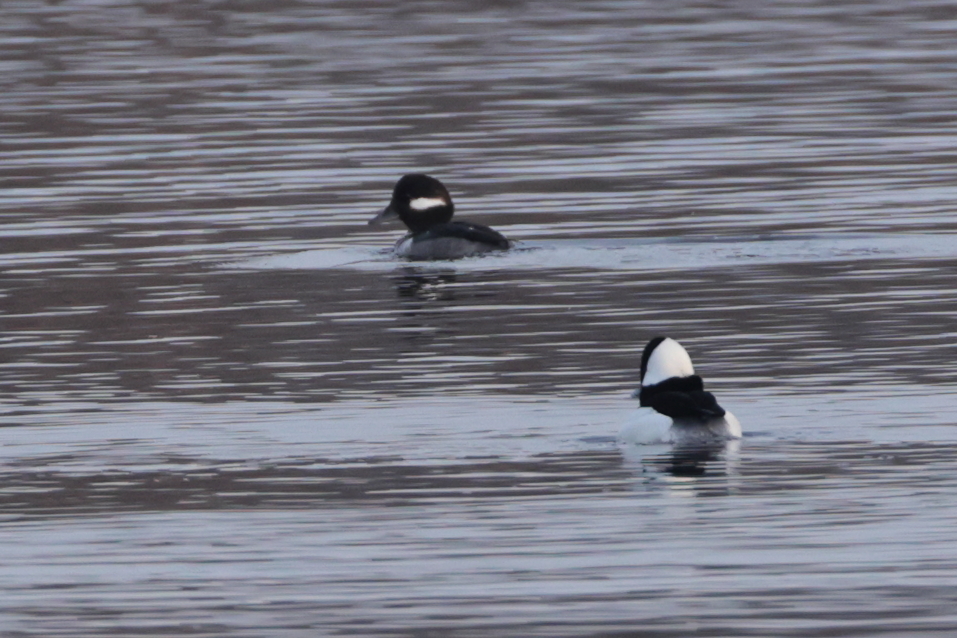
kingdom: Animalia
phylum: Chordata
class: Aves
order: Anseriformes
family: Anatidae
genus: Bucephala
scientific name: Bucephala albeola
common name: Bufflehead
